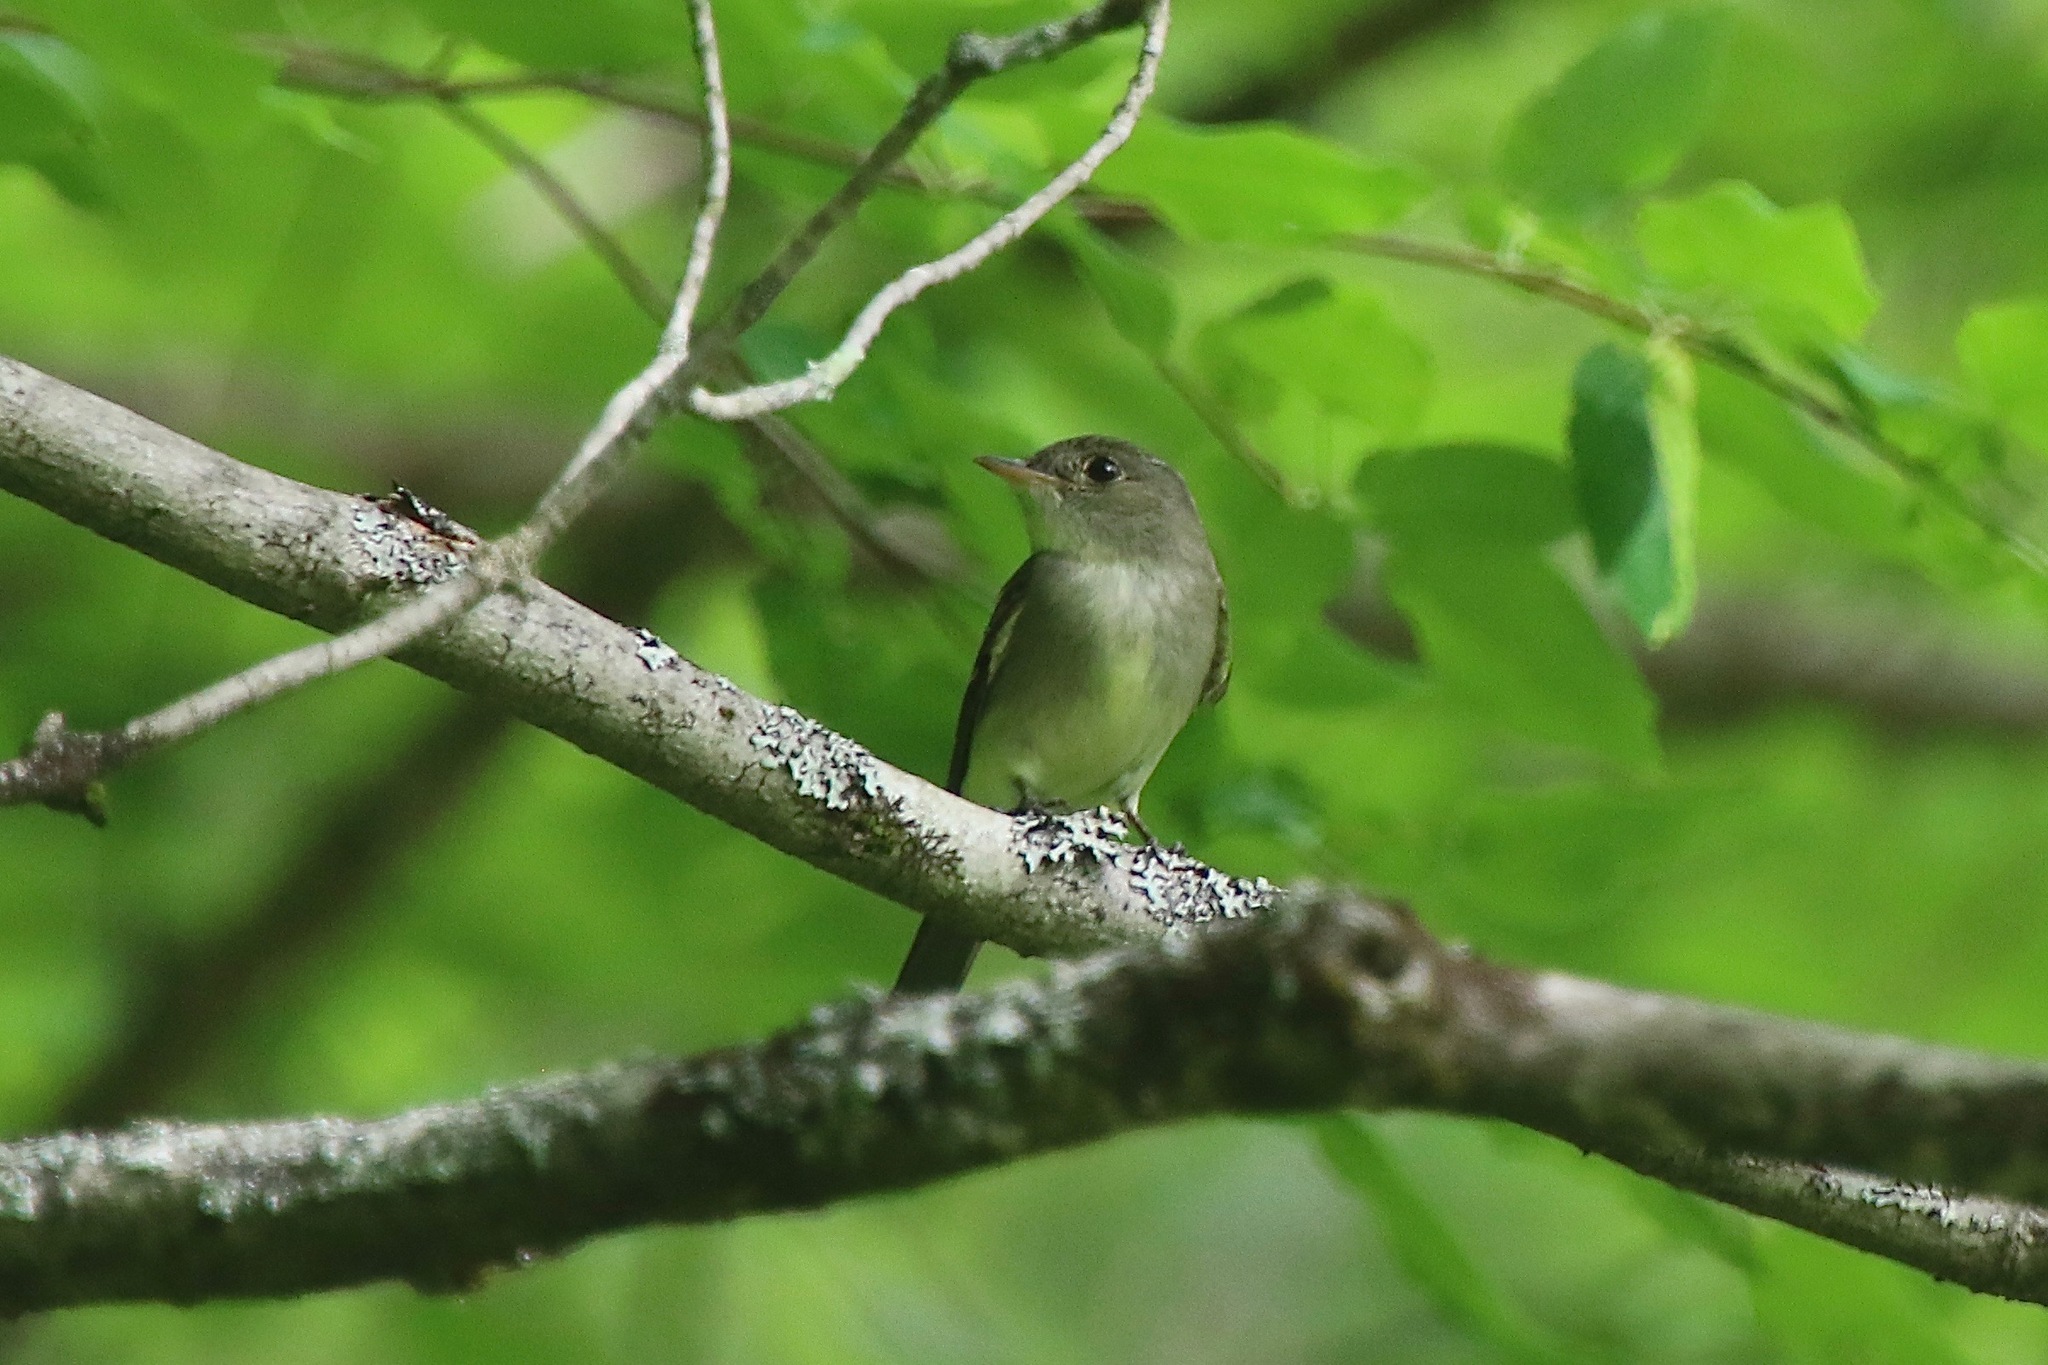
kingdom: Animalia
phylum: Chordata
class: Aves
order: Passeriformes
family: Tyrannidae
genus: Contopus
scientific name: Contopus virens
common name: Eastern wood-pewee
